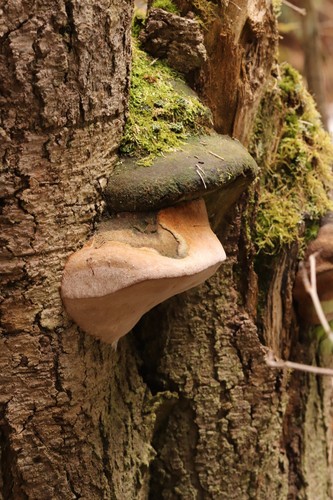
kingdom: Fungi
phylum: Basidiomycota
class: Agaricomycetes
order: Hymenochaetales
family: Hymenochaetaceae
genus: Phellinus
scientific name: Phellinus hartigii
